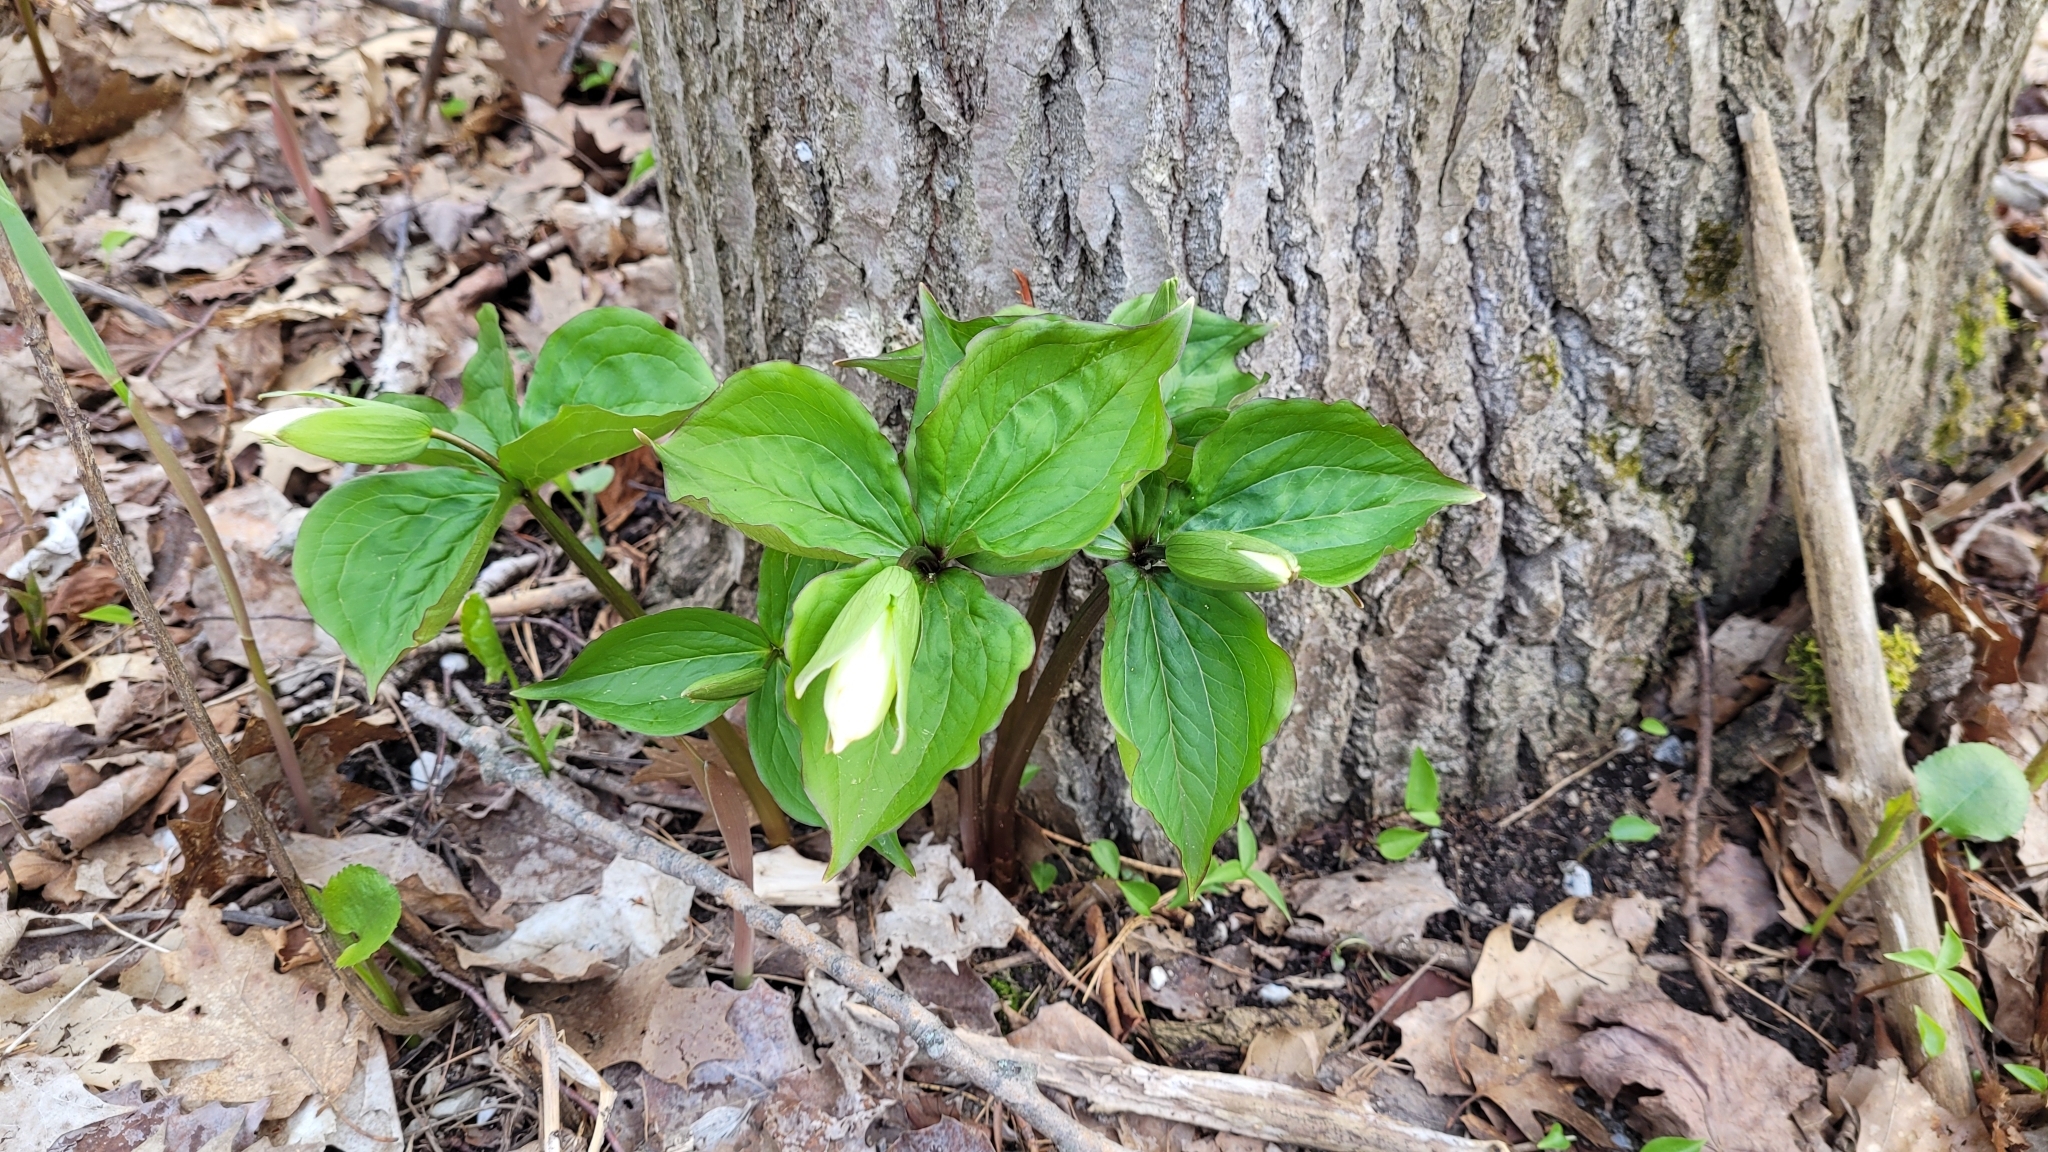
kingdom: Plantae
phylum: Tracheophyta
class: Liliopsida
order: Liliales
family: Melanthiaceae
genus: Trillium
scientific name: Trillium grandiflorum
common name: Great white trillium
